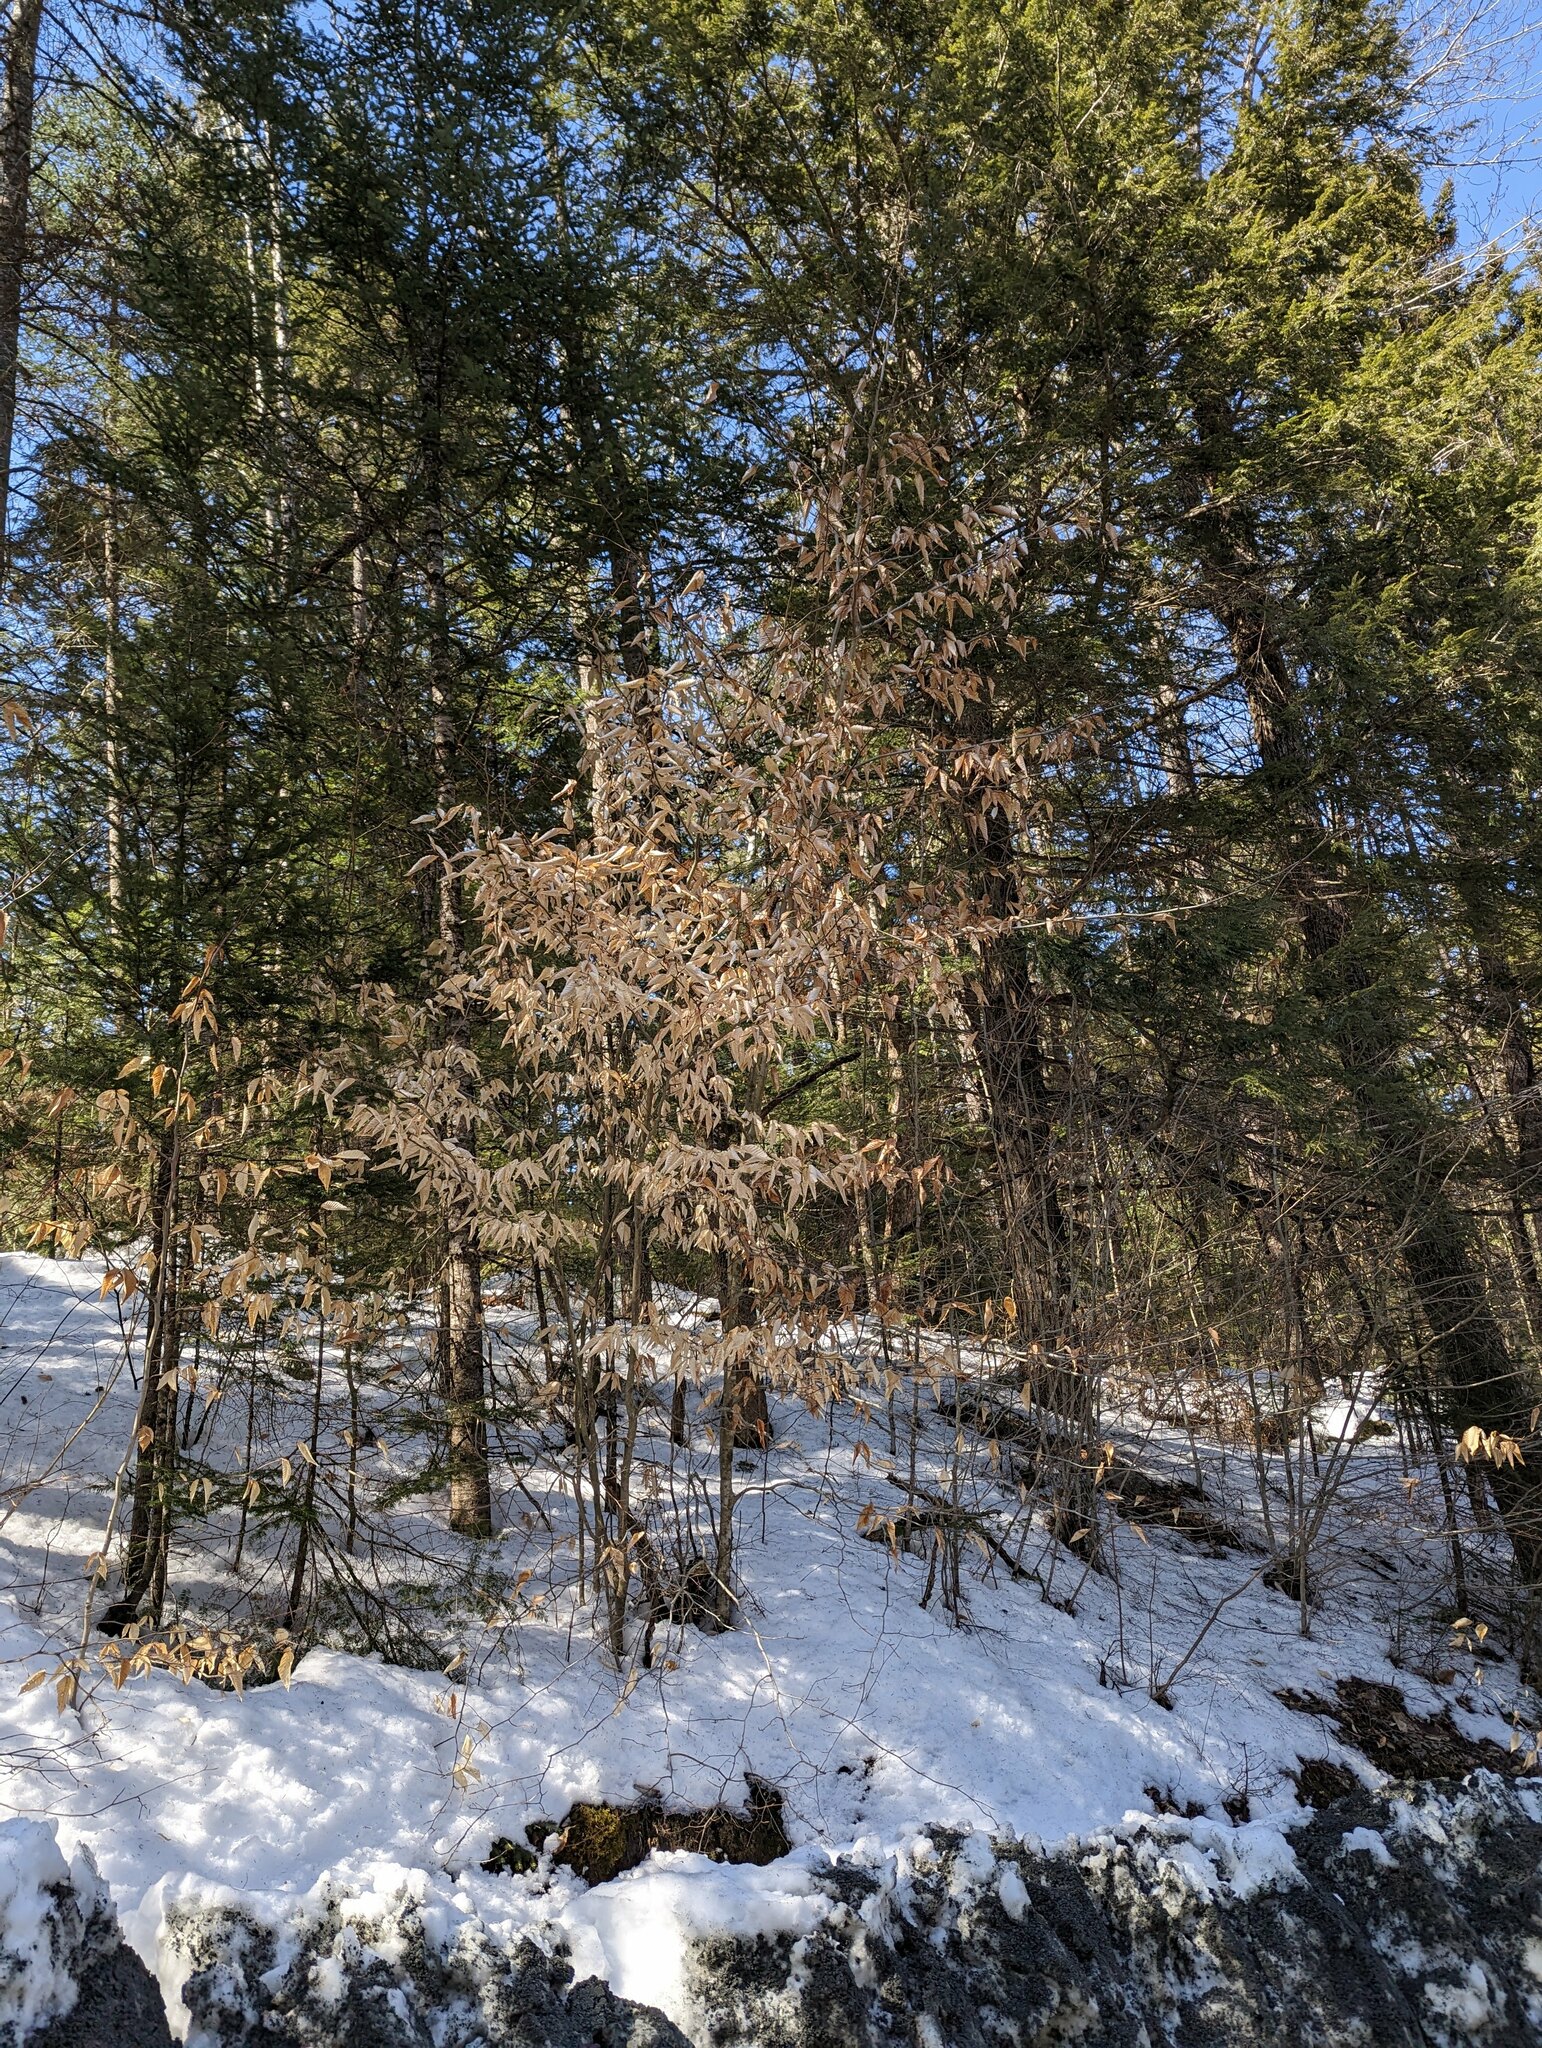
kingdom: Plantae
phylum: Tracheophyta
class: Magnoliopsida
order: Fagales
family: Fagaceae
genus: Fagus
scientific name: Fagus grandifolia
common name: American beech
